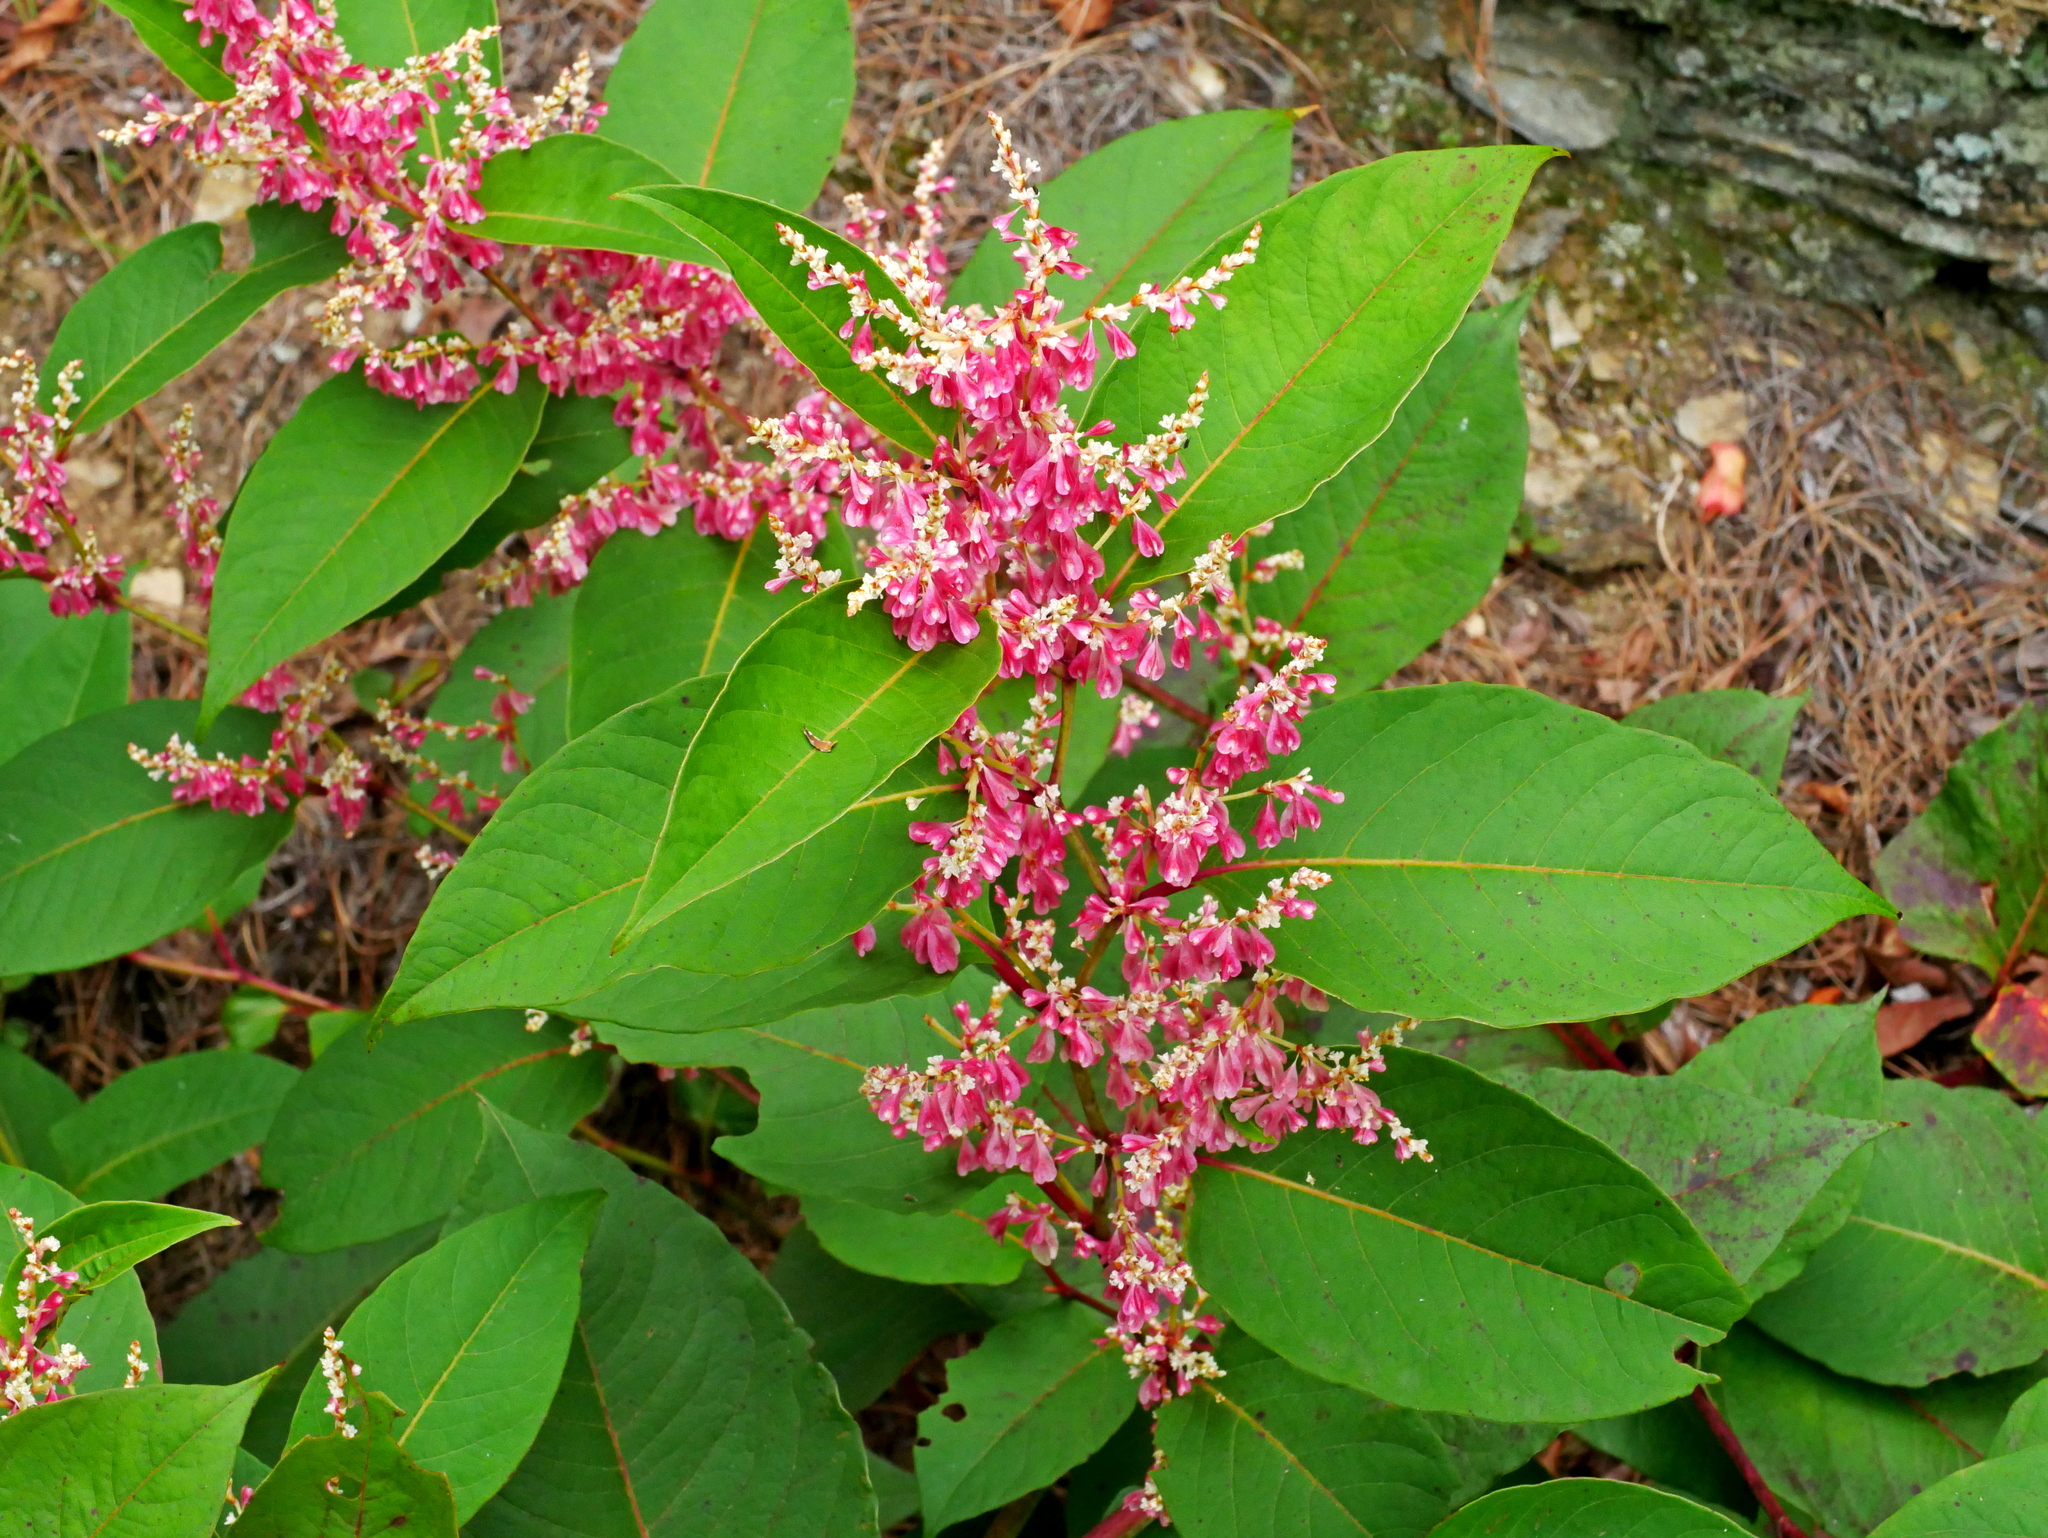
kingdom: Plantae
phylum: Tracheophyta
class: Magnoliopsida
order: Caryophyllales
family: Polygonaceae
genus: Reynoutria
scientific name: Reynoutria japonica
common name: Japanese knotweed
